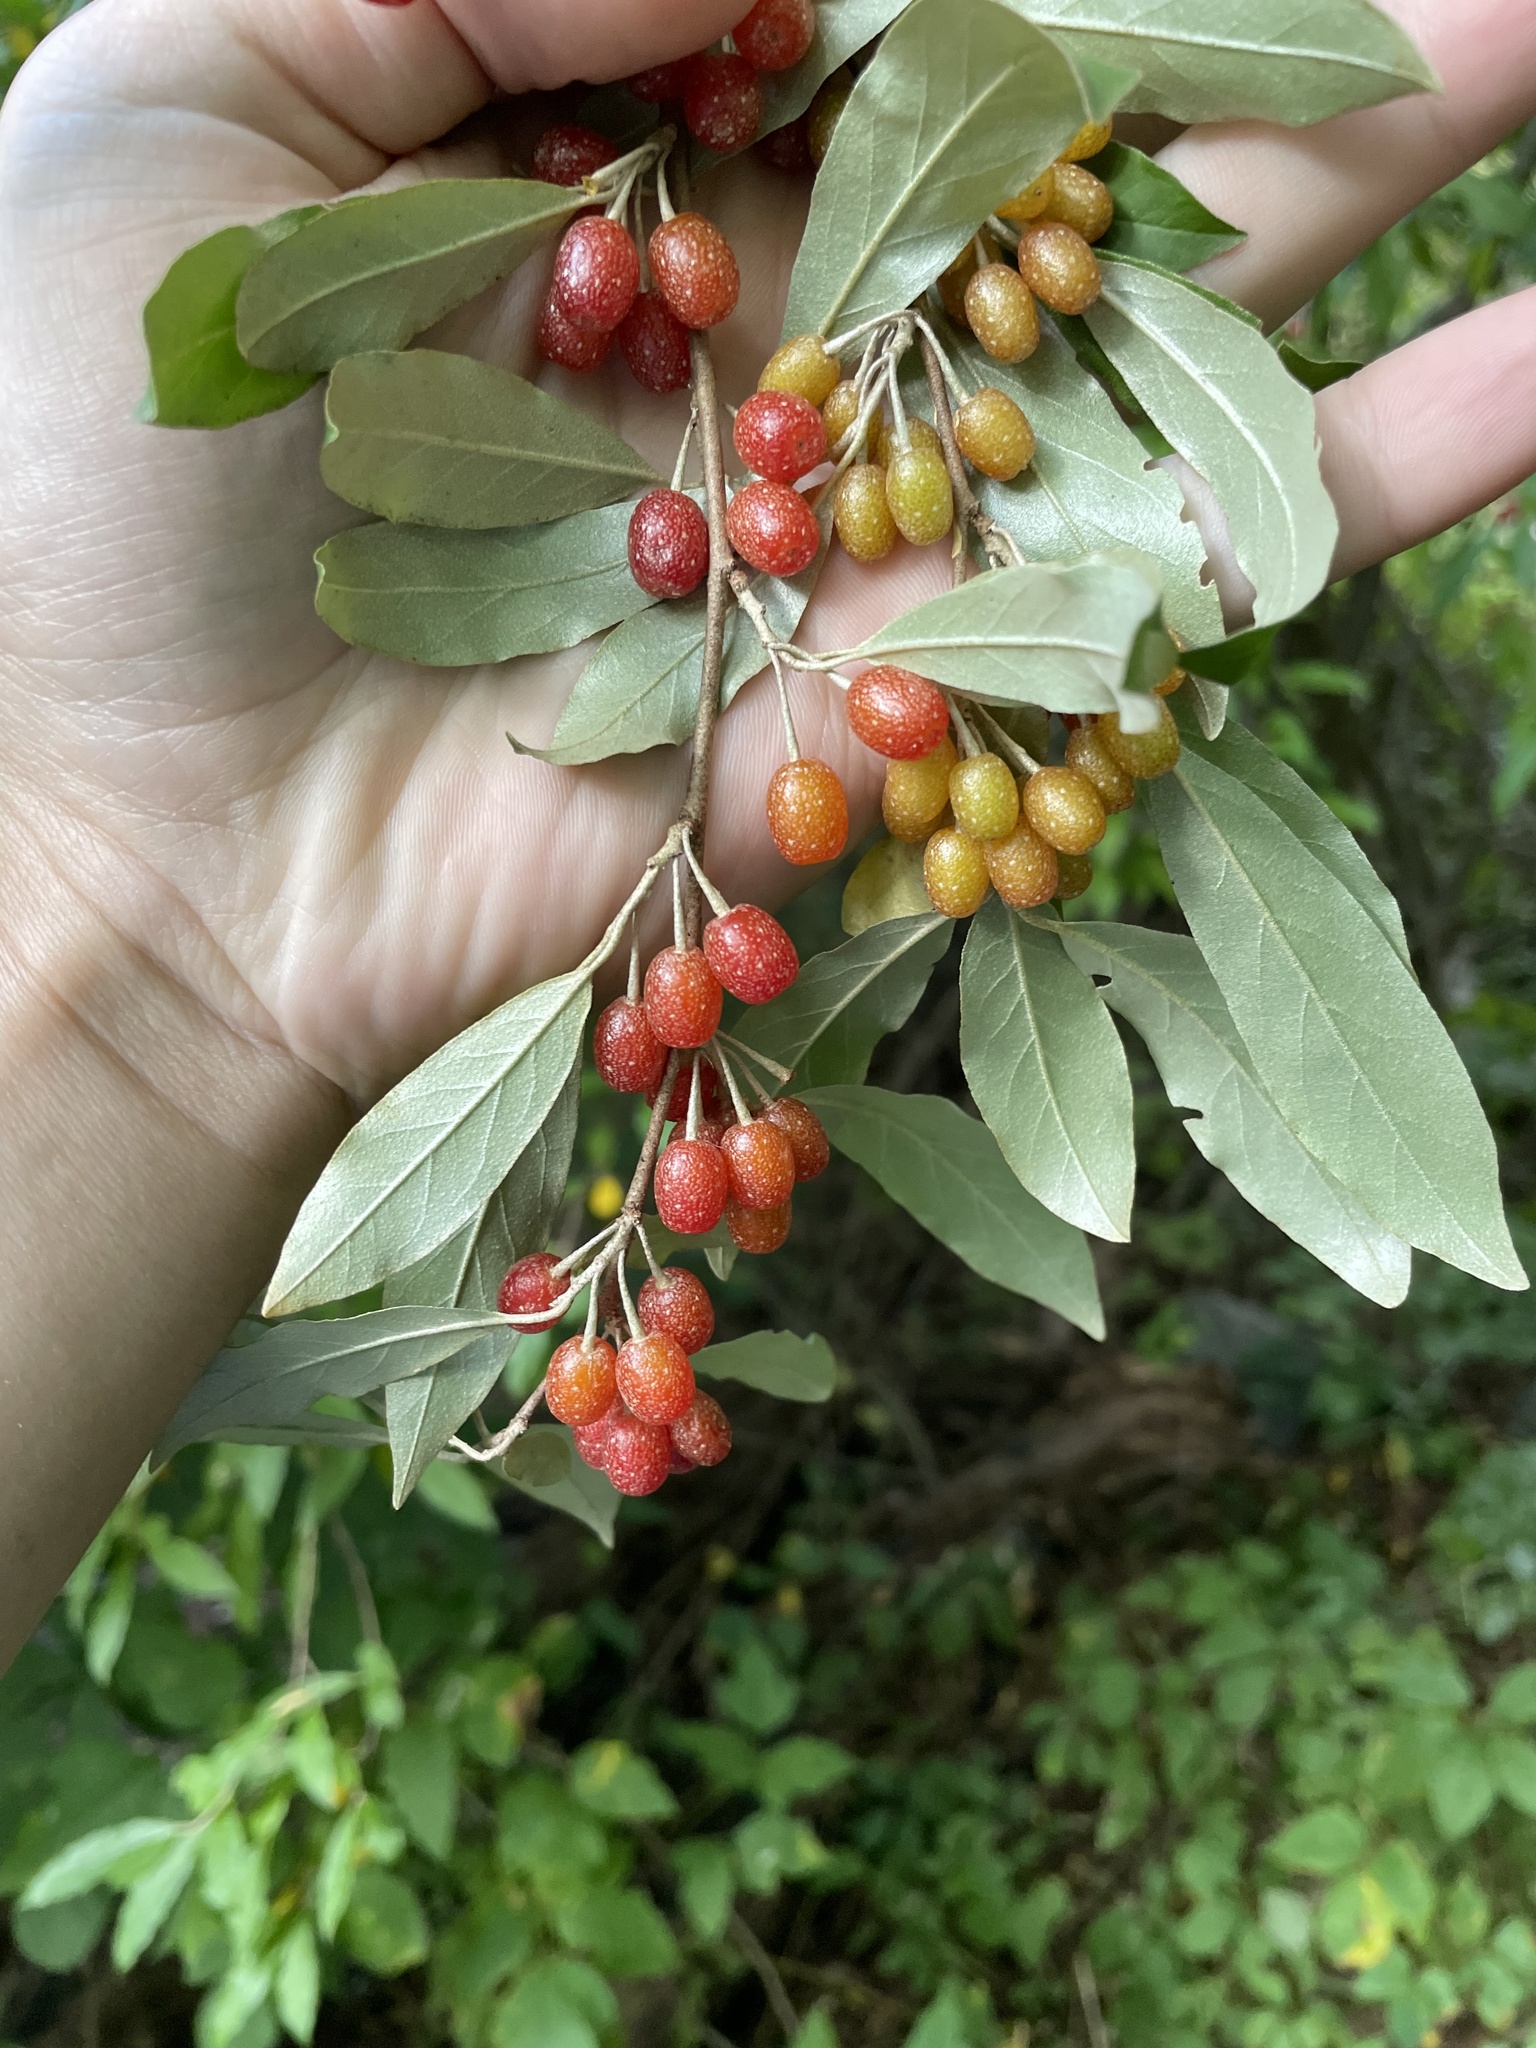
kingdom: Plantae
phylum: Tracheophyta
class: Magnoliopsida
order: Rosales
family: Elaeagnaceae
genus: Elaeagnus
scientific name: Elaeagnus umbellata
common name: Autumn olive
